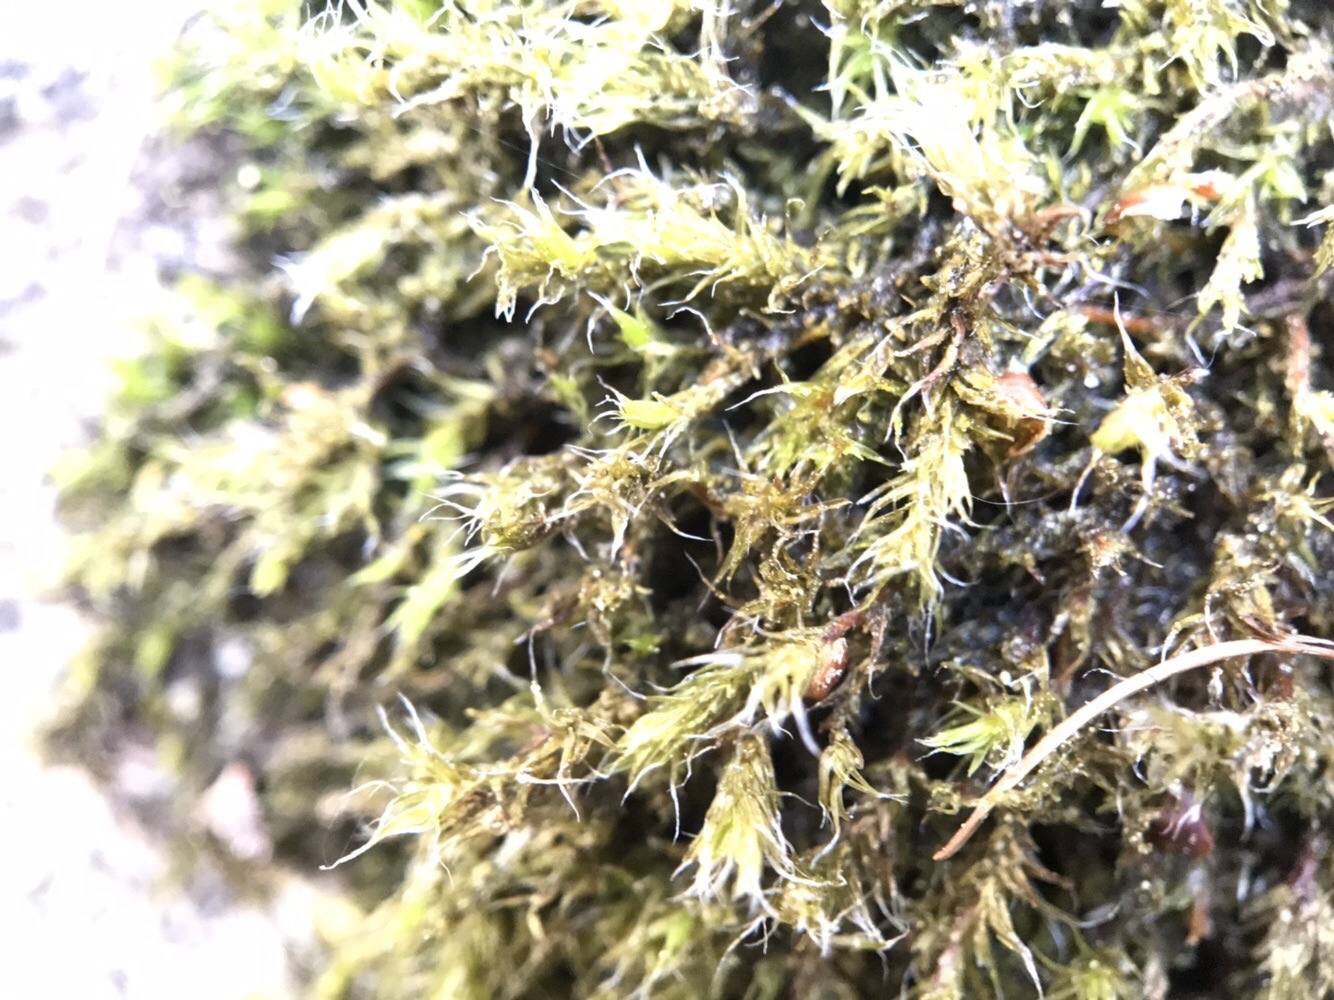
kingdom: Plantae
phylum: Bryophyta
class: Bryopsida
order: Grimmiales
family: Grimmiaceae
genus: Bucklandiella
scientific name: Bucklandiella heterosticha
